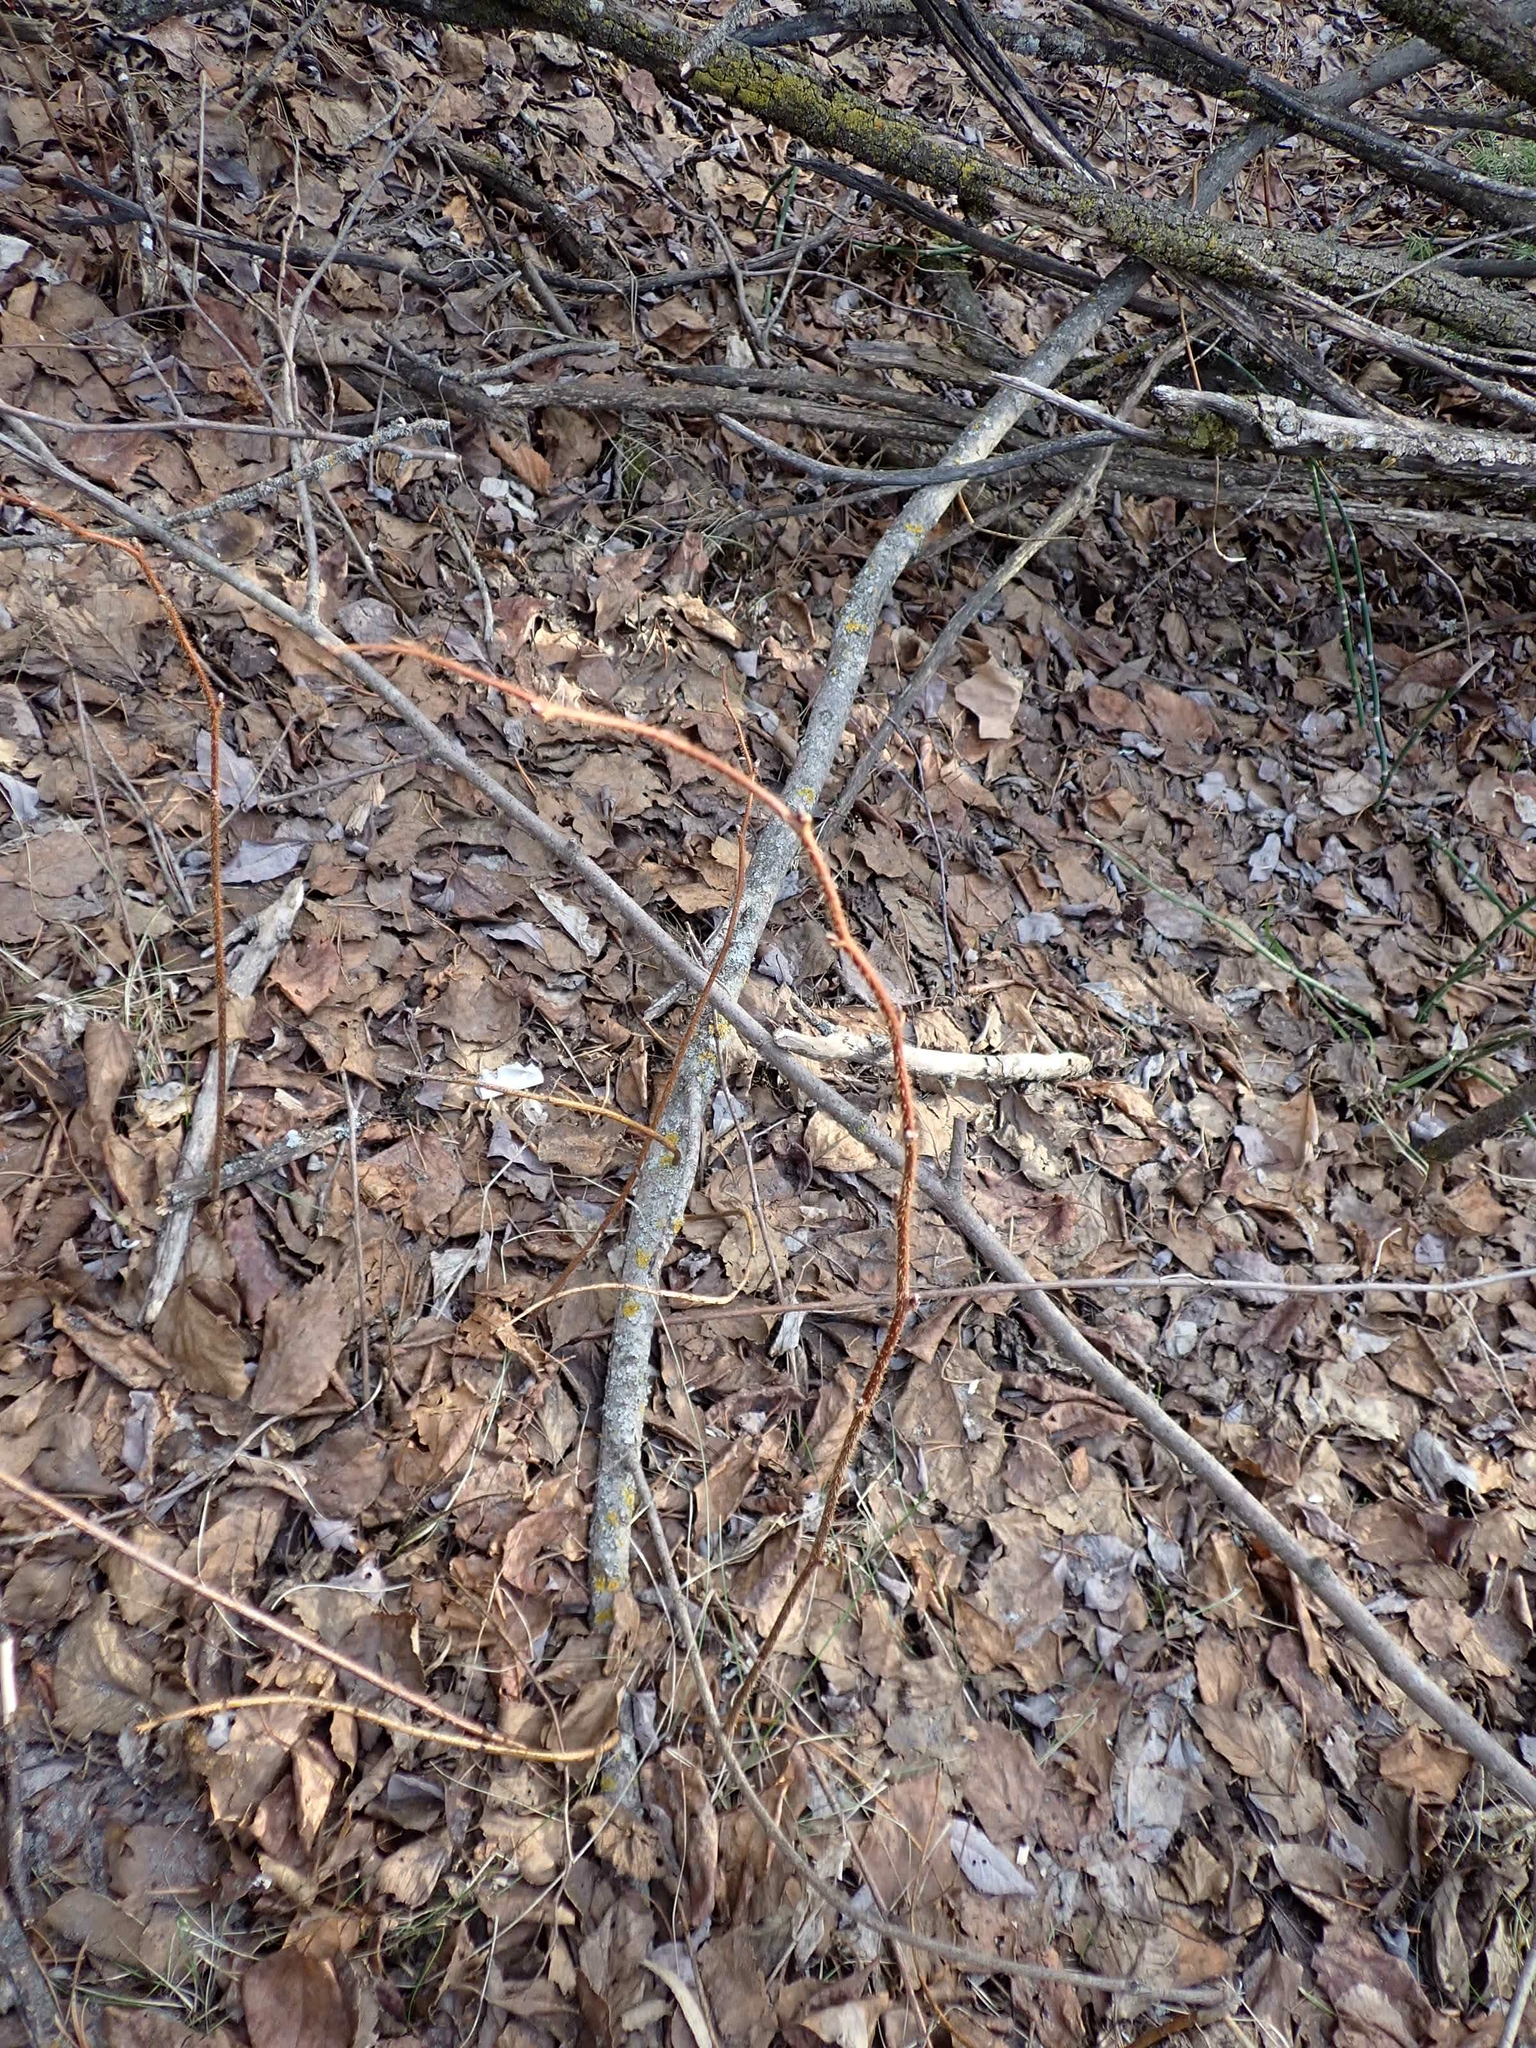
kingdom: Plantae
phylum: Tracheophyta
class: Magnoliopsida
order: Rosales
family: Rosaceae
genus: Rubus
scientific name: Rubus idaeus
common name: Raspberry
